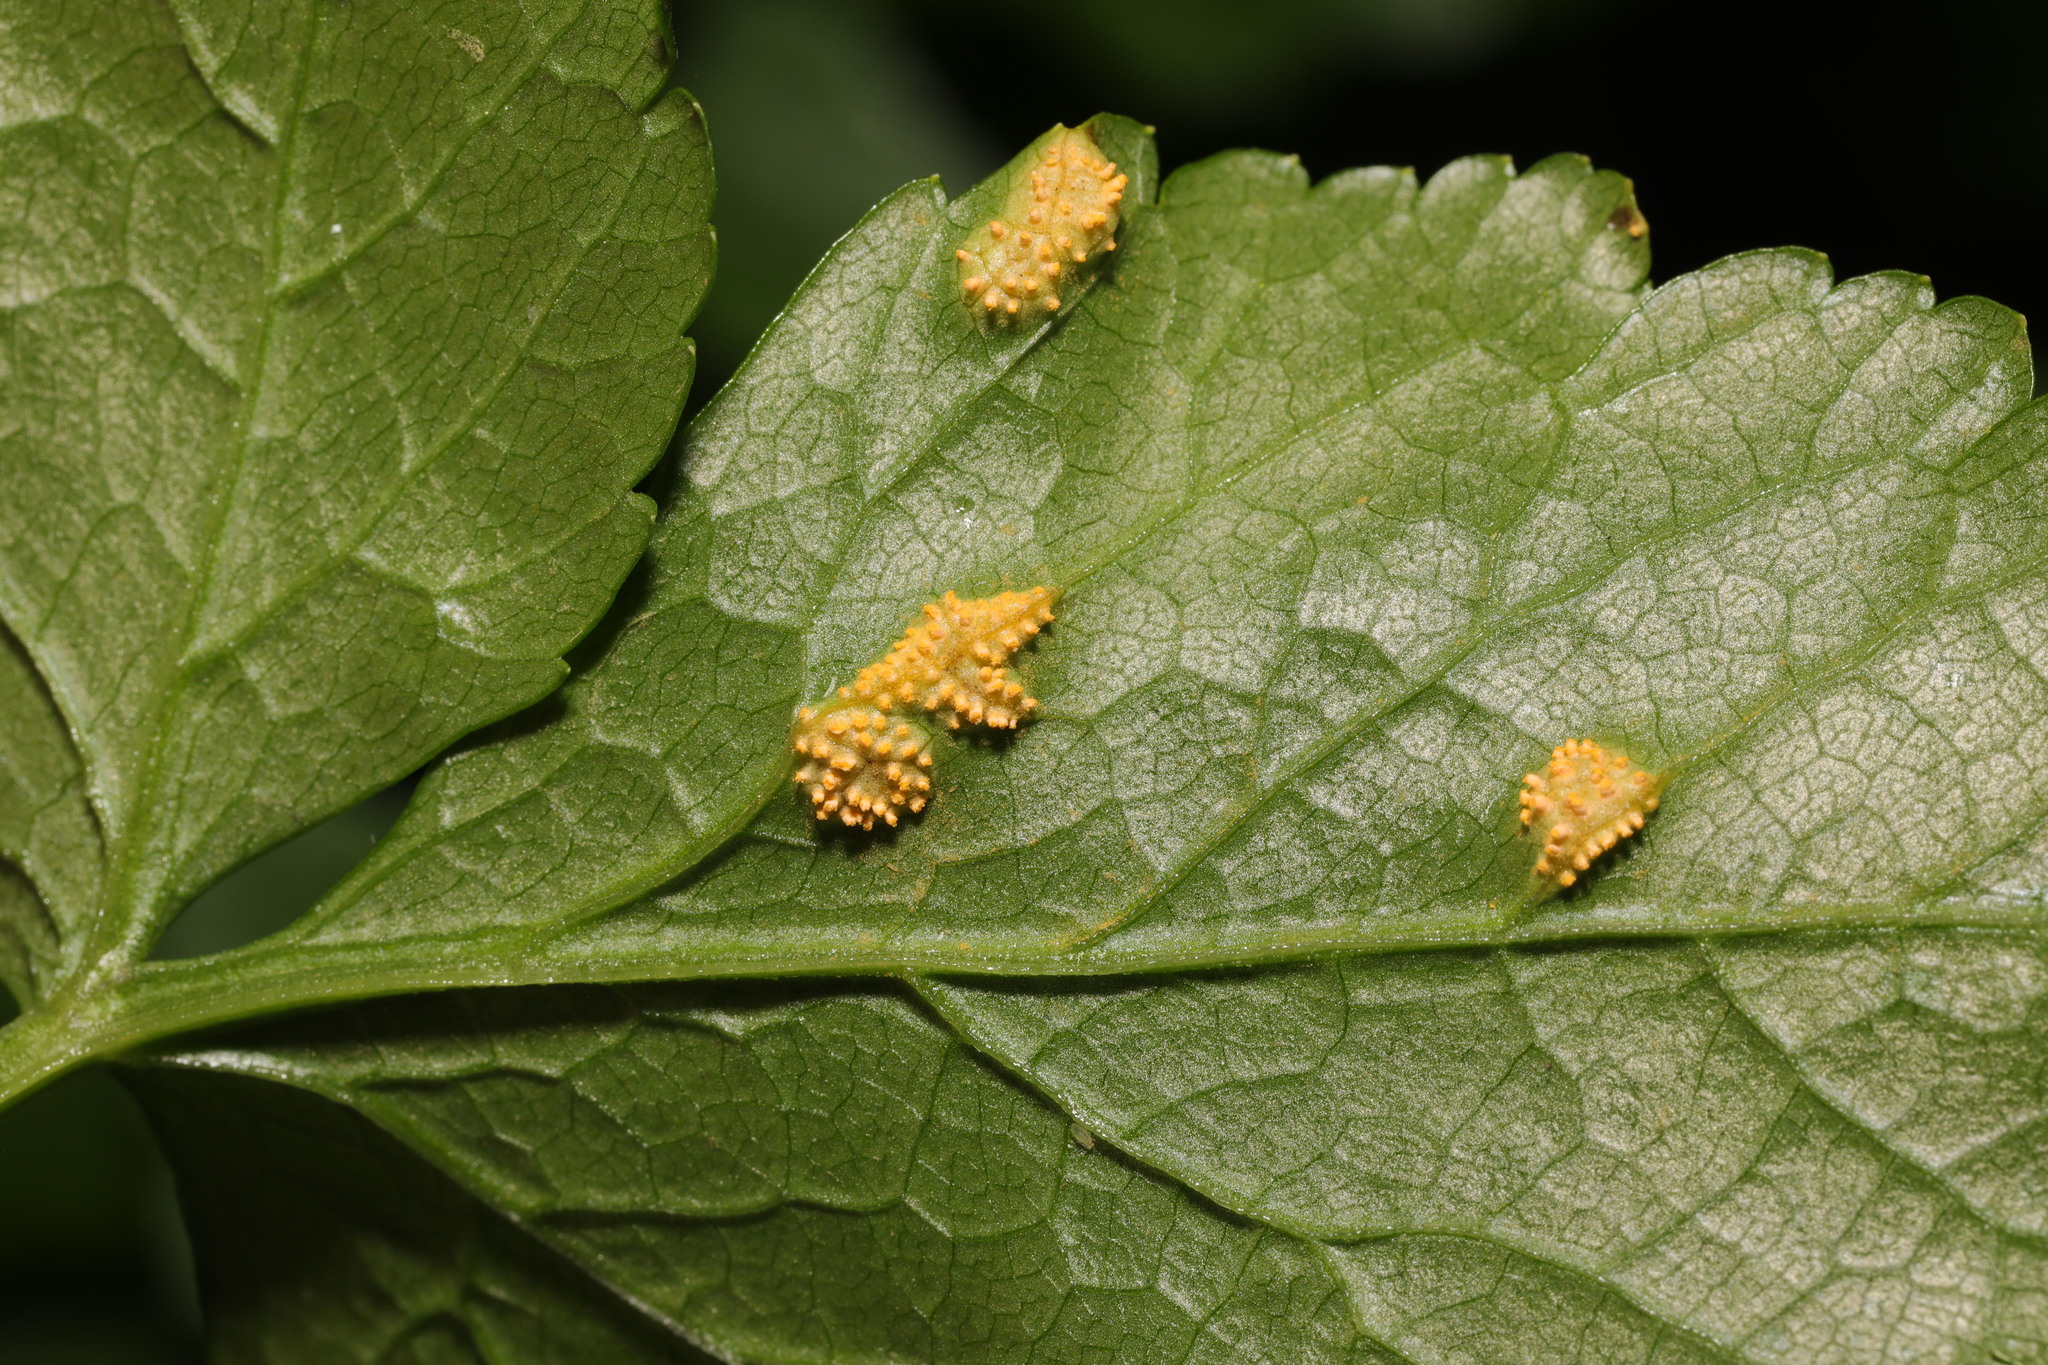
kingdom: Fungi
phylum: Basidiomycota
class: Pucciniomycetes
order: Pucciniales
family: Pucciniaceae
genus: Puccinia
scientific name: Puccinia smyrnii
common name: Alexanders rust
